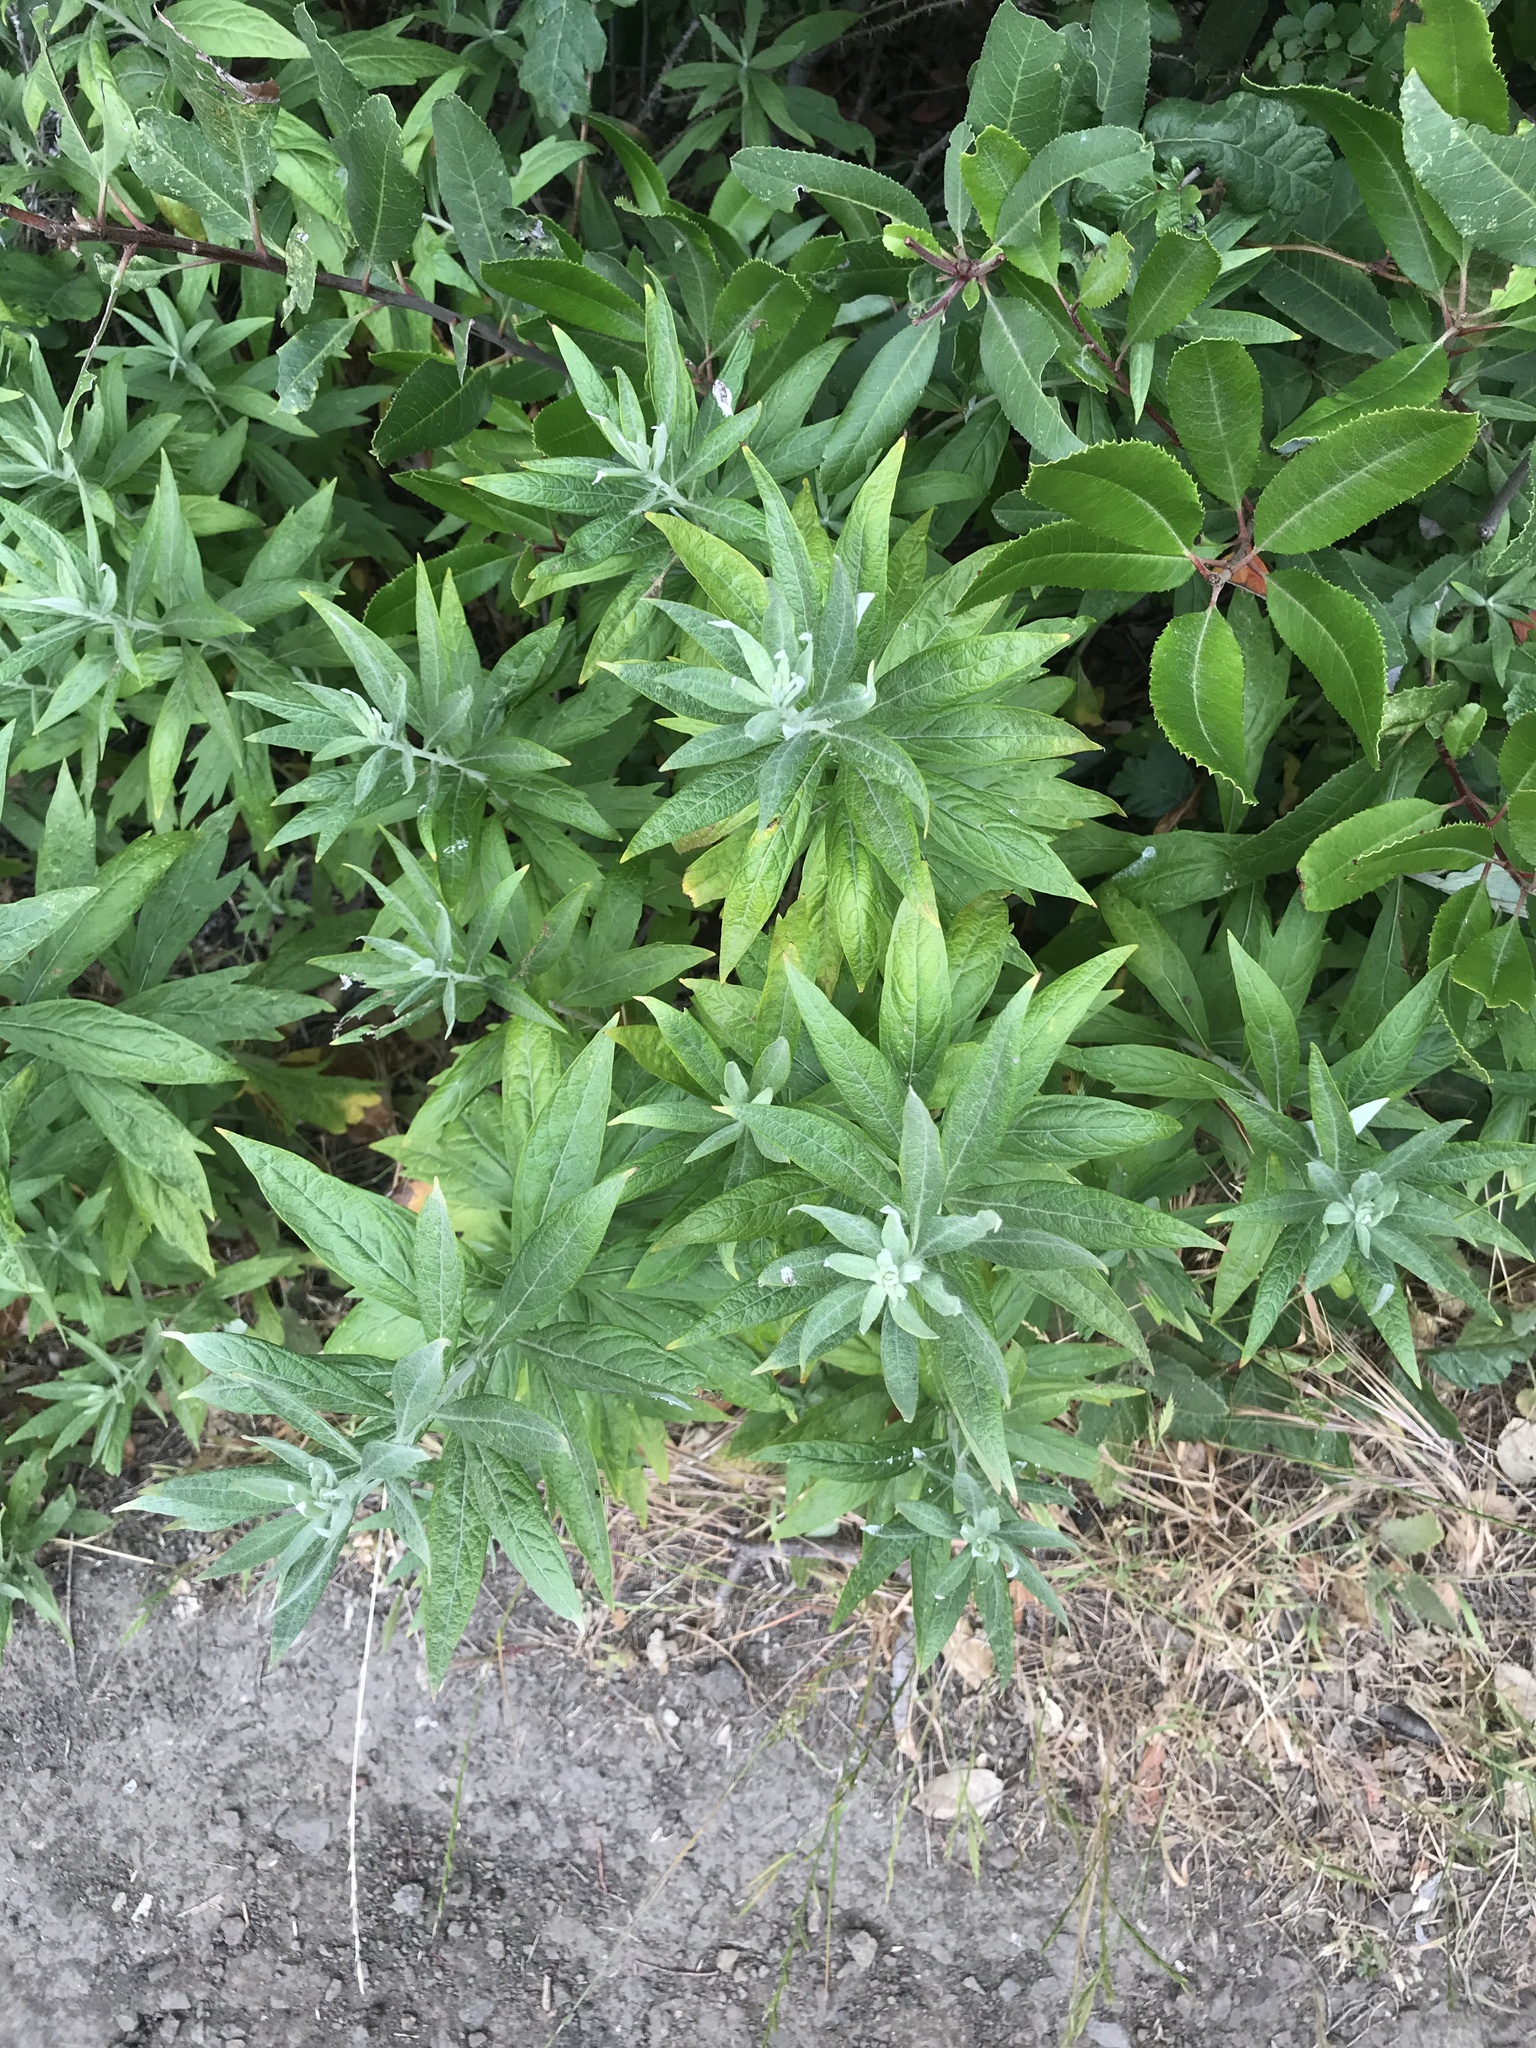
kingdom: Plantae
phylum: Tracheophyta
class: Magnoliopsida
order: Asterales
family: Asteraceae
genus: Artemisia
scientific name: Artemisia douglasiana
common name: Northwest mugwort
